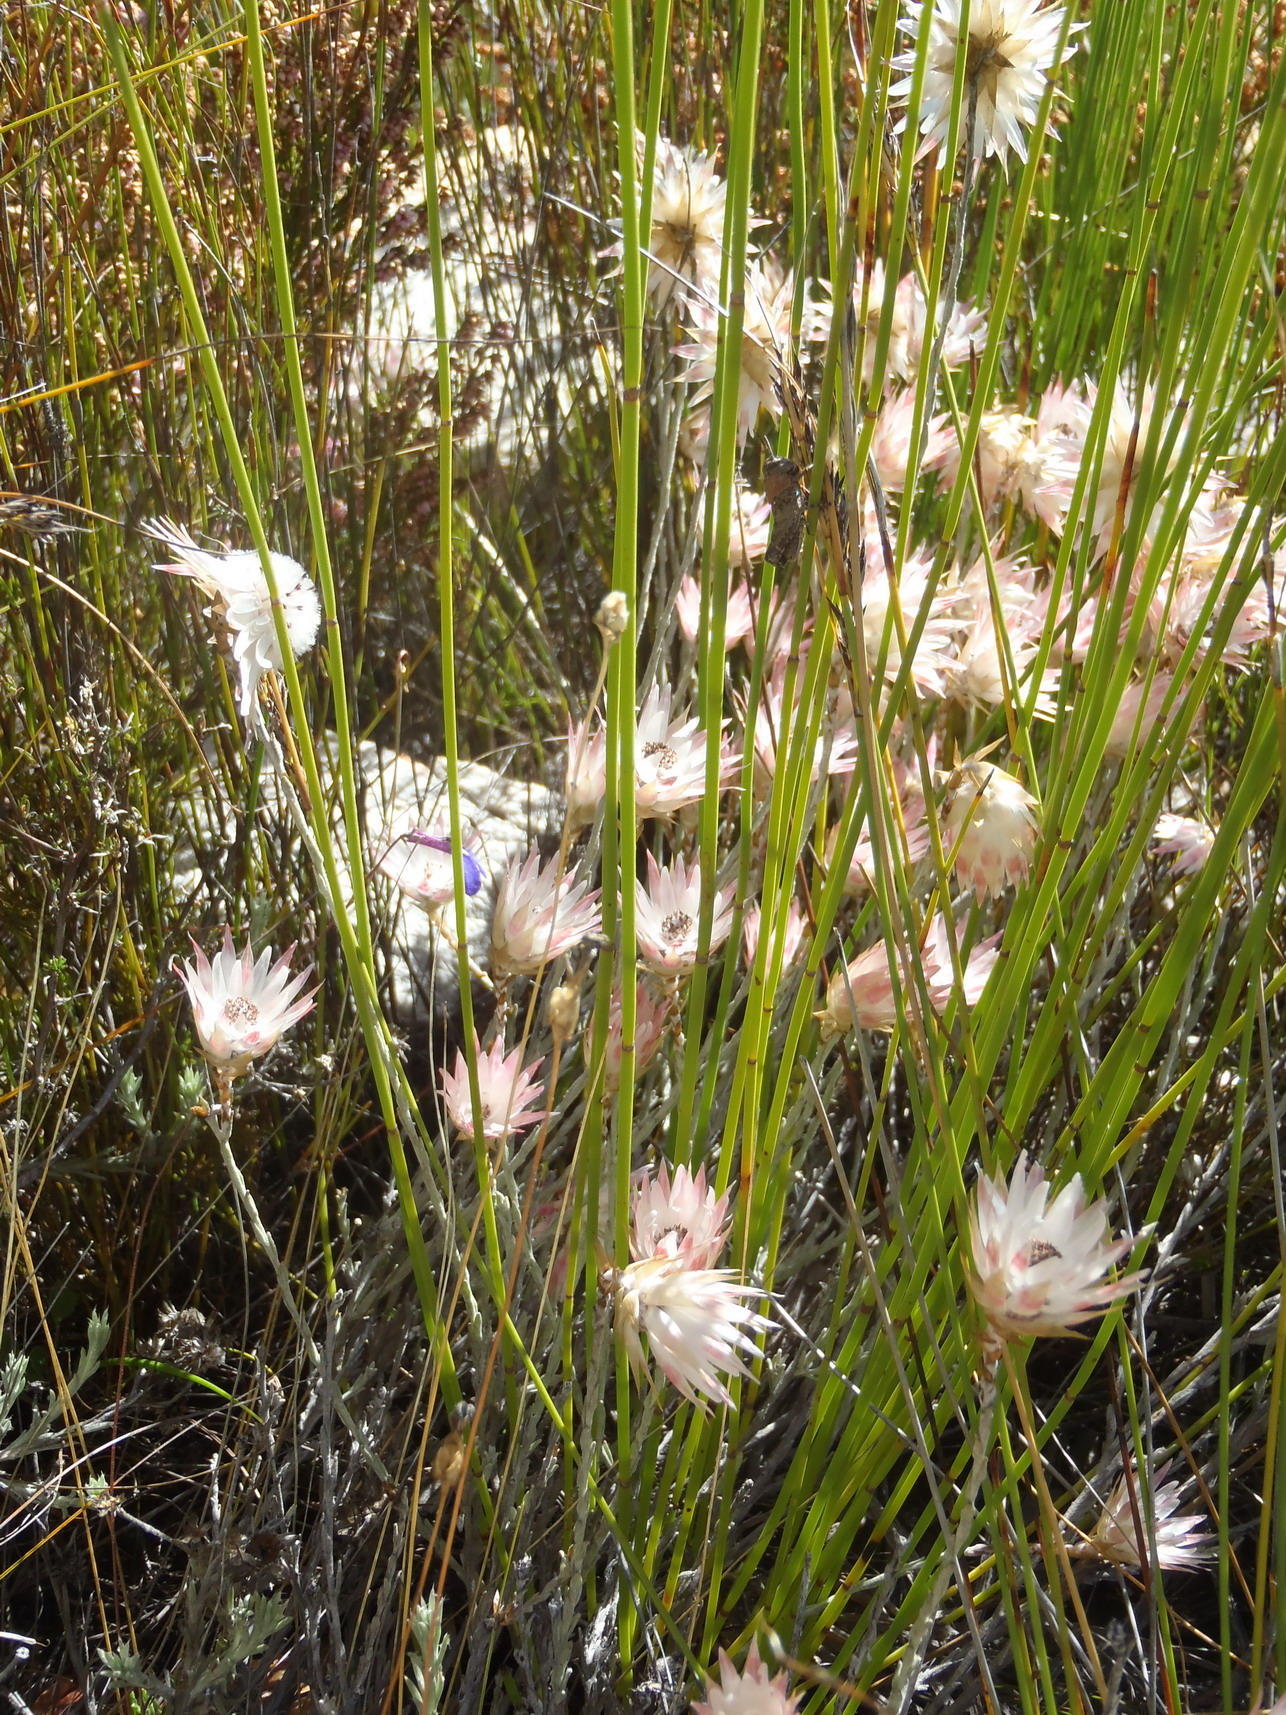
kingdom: Plantae
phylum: Tracheophyta
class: Magnoliopsida
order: Asterales
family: Asteraceae
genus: Syncarpha
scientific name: Syncarpha canescens
